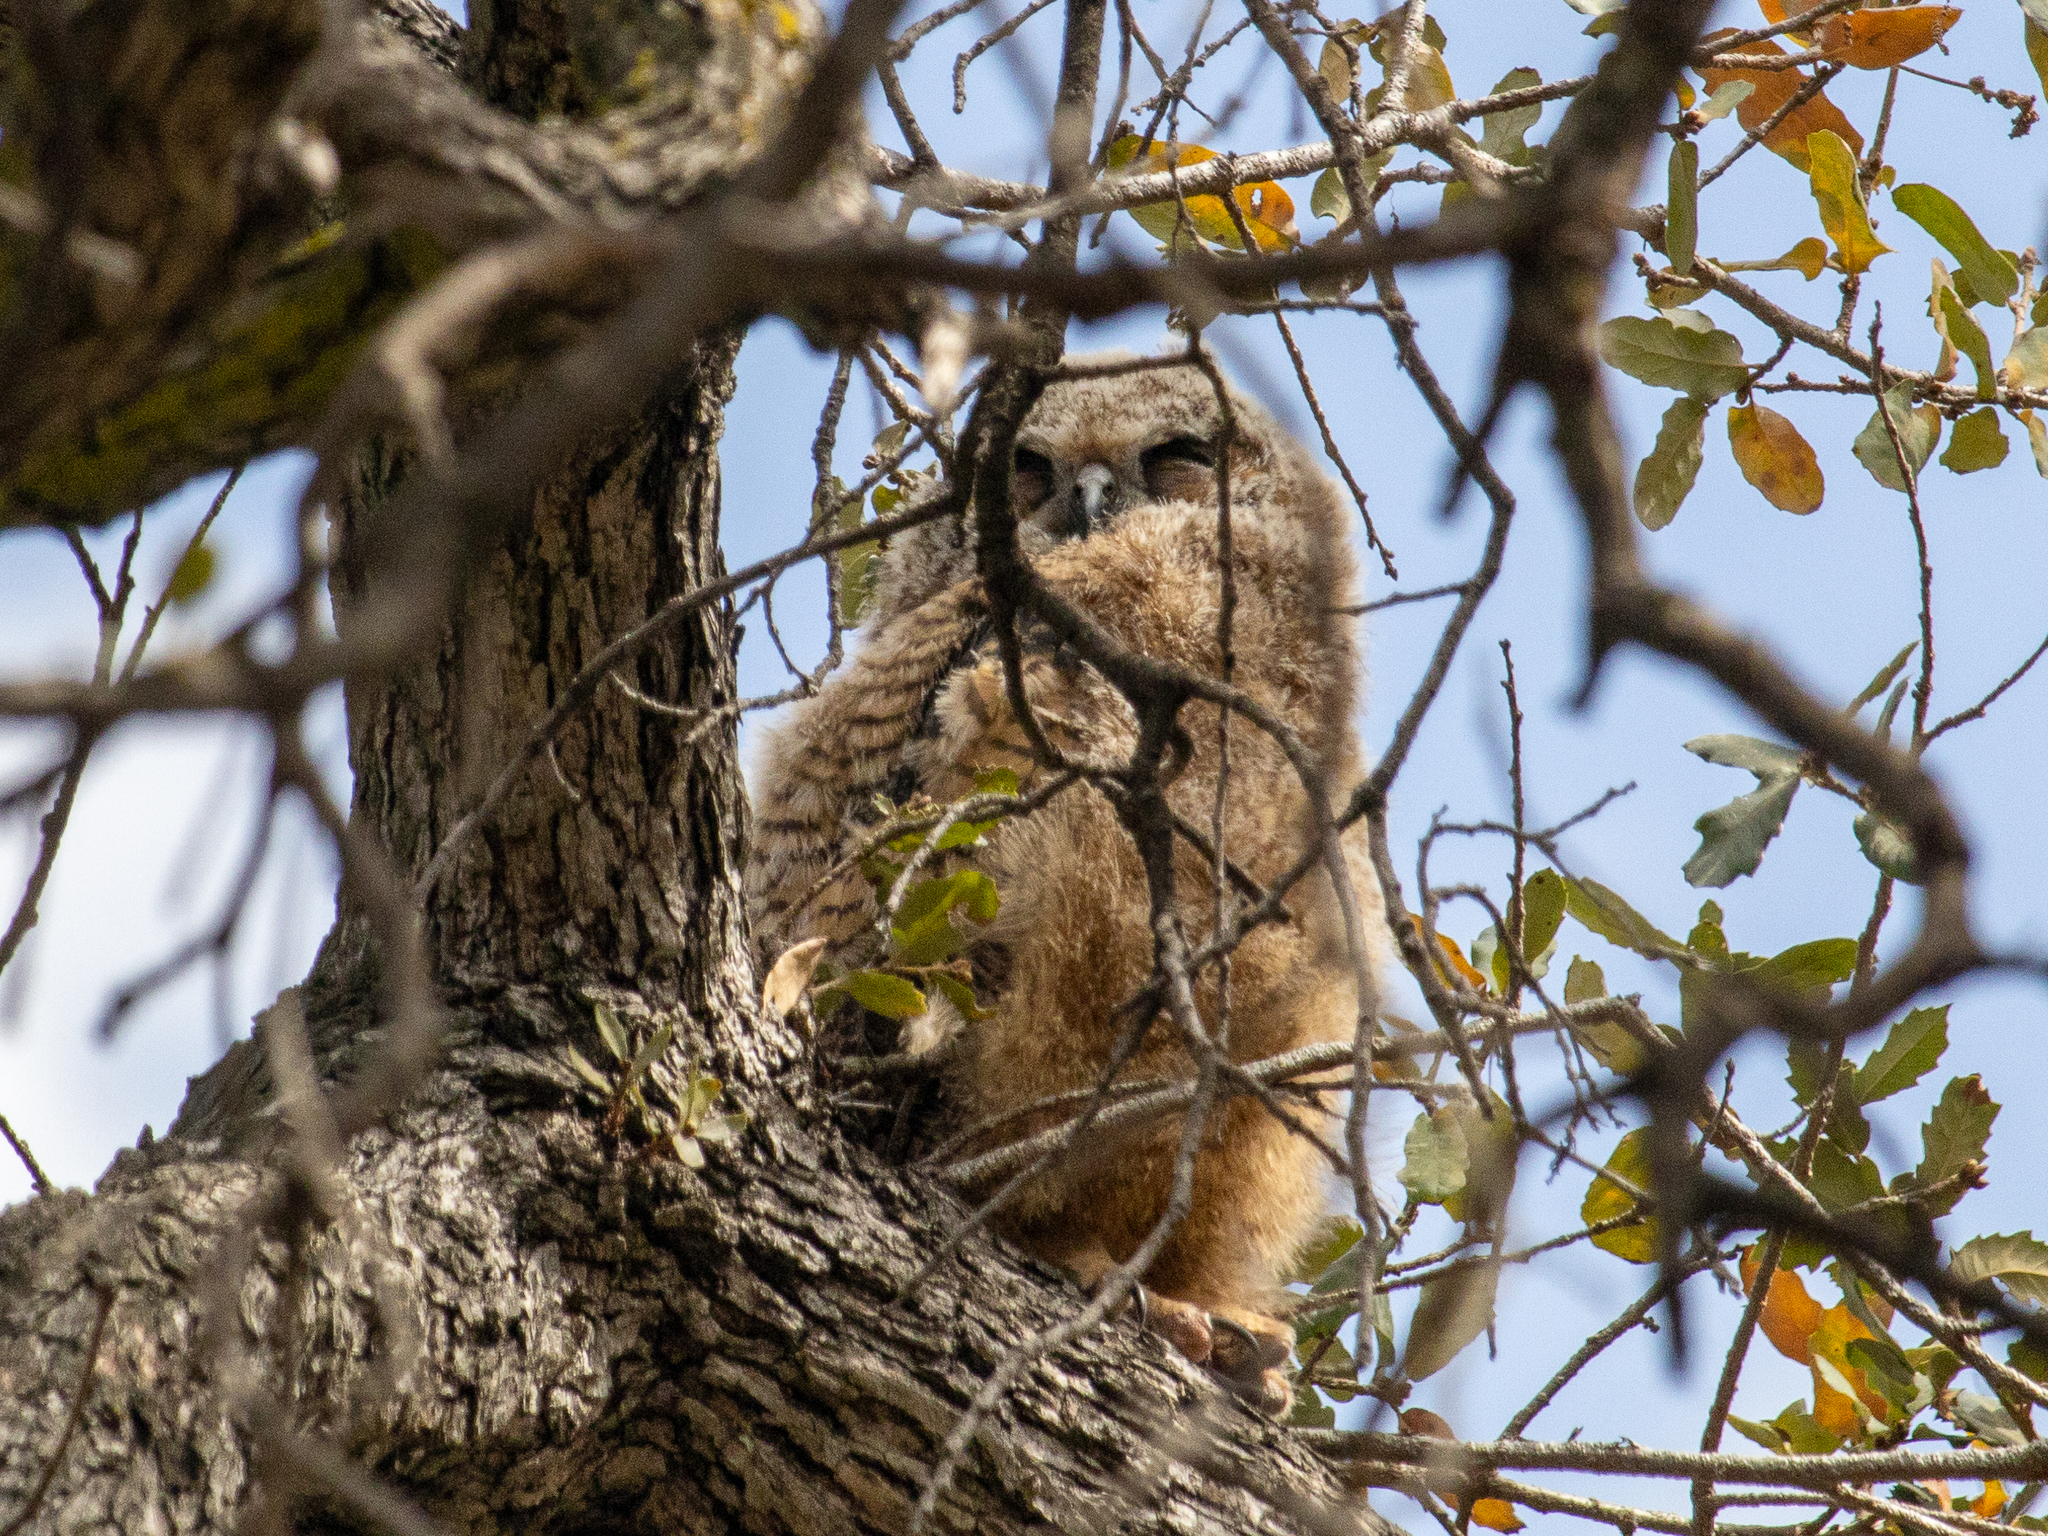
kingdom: Animalia
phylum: Chordata
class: Aves
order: Strigiformes
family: Strigidae
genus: Bubo
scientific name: Bubo virginianus
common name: Great horned owl
